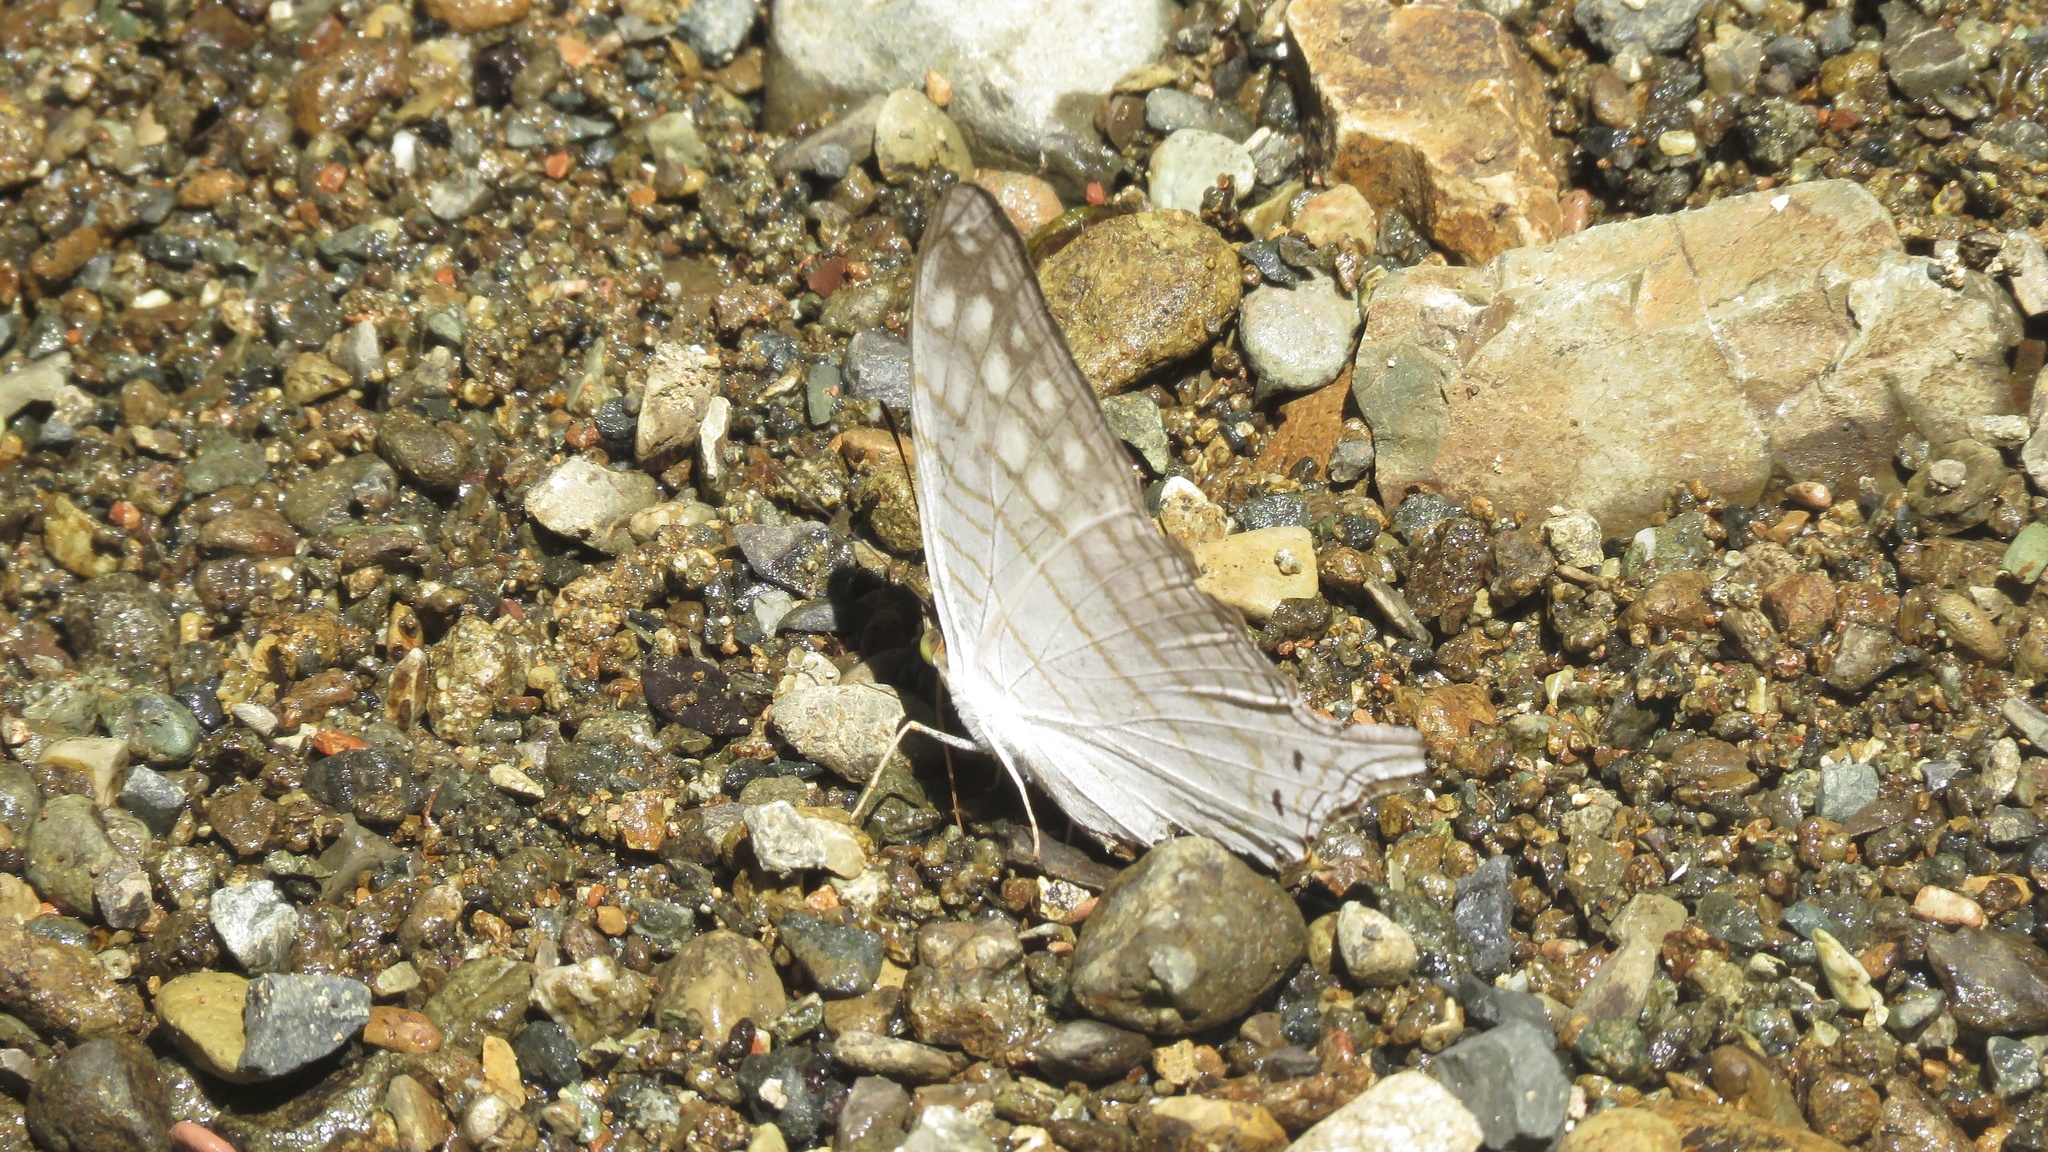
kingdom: Animalia
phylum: Arthropoda
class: Insecta
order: Lepidoptera
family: Nymphalidae
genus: Marpesia
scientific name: Marpesia merops
